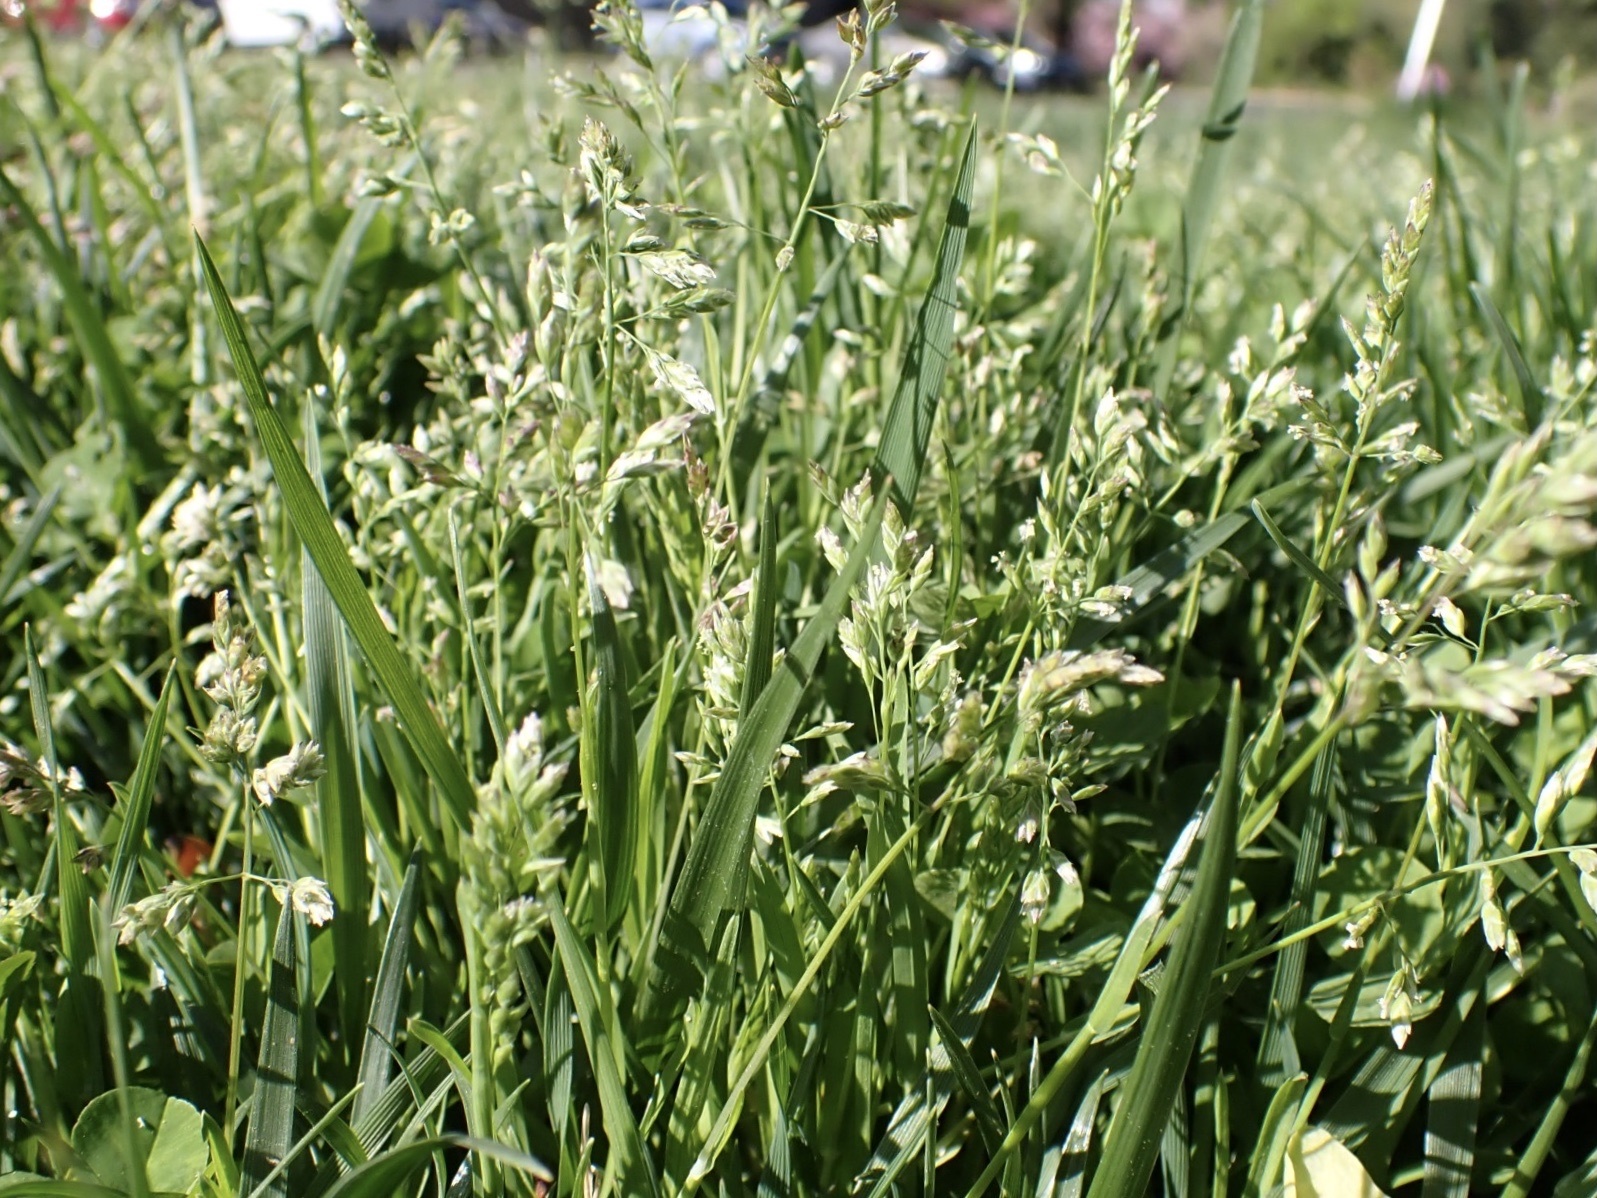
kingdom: Plantae
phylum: Tracheophyta
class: Liliopsida
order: Poales
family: Poaceae
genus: Poa
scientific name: Poa annua
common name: Annual bluegrass
